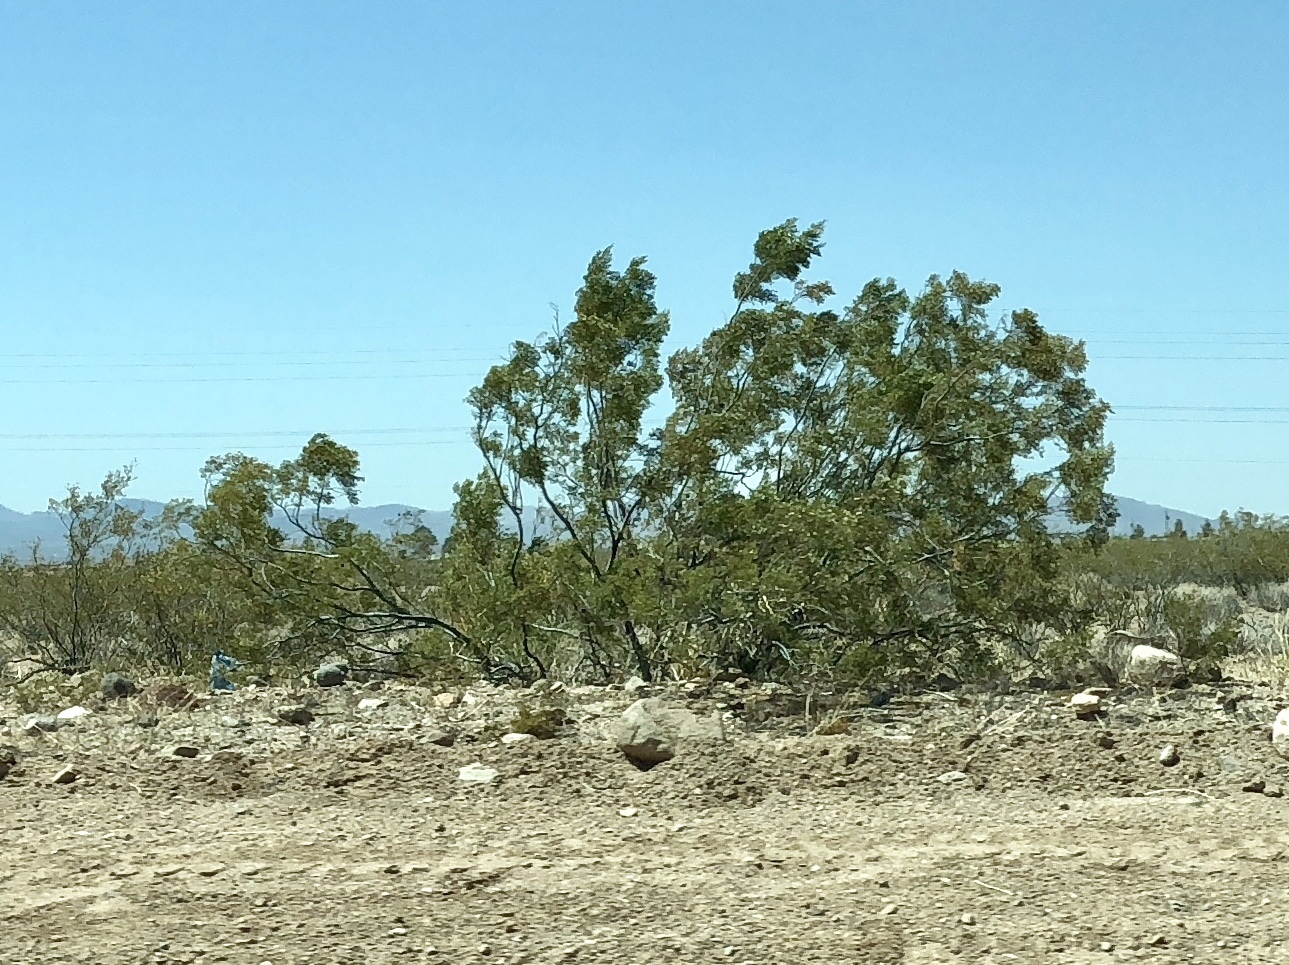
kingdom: Plantae
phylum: Tracheophyta
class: Magnoliopsida
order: Zygophyllales
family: Zygophyllaceae
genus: Larrea
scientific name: Larrea tridentata
